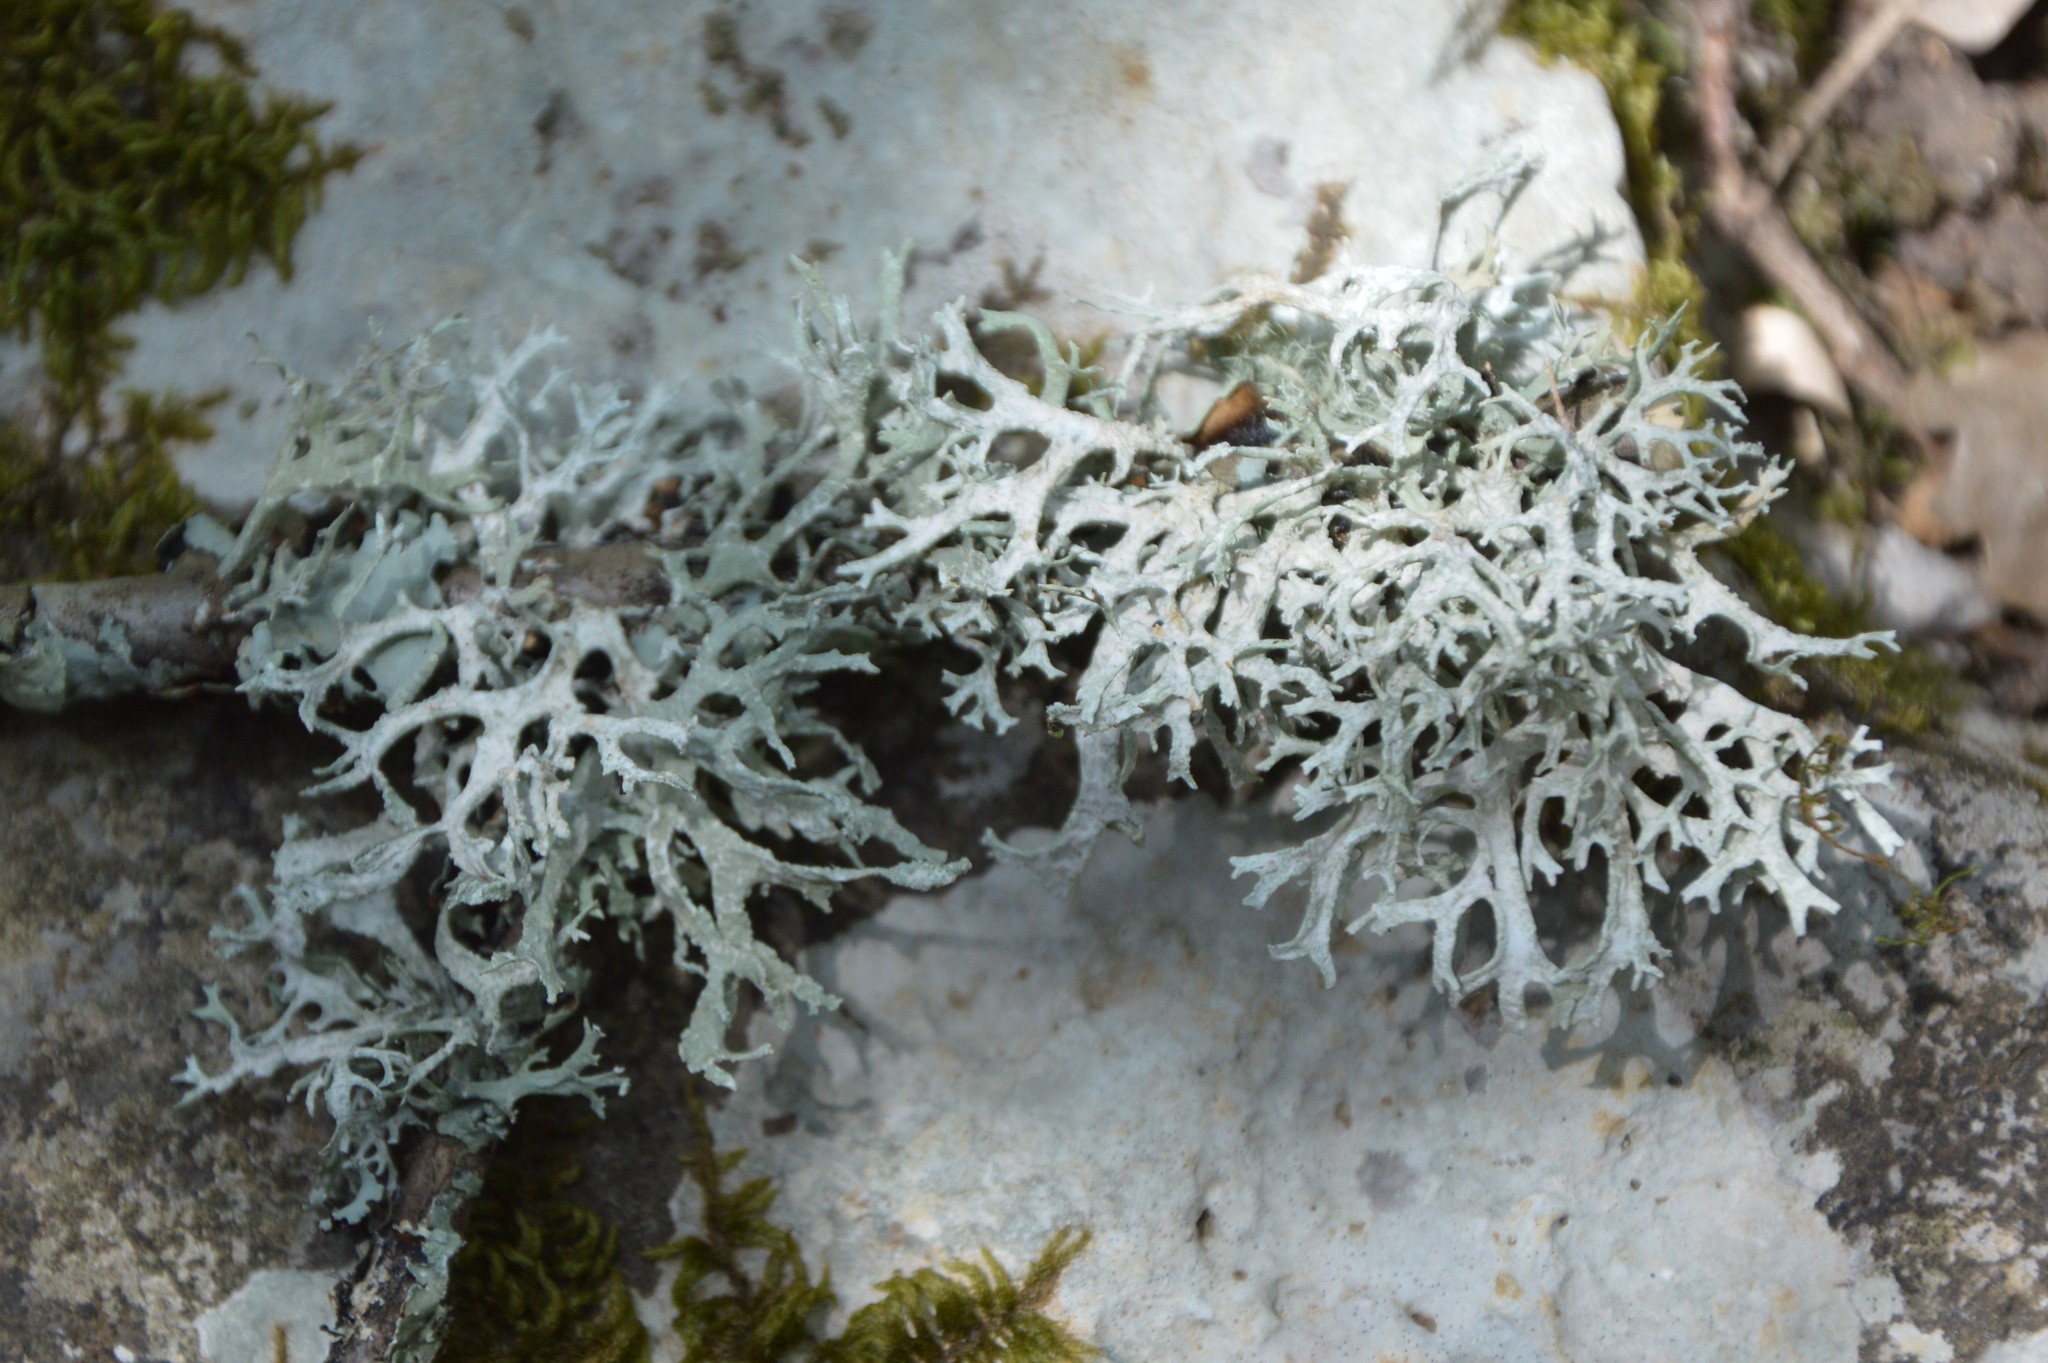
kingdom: Fungi
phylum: Ascomycota
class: Lecanoromycetes
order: Lecanorales
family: Parmeliaceae
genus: Evernia
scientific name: Evernia prunastri
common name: Oak moss
